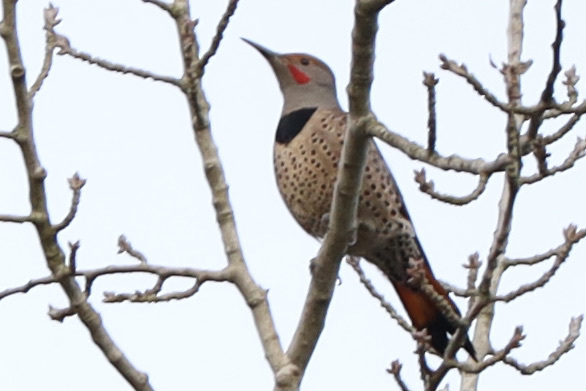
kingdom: Animalia
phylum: Chordata
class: Aves
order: Piciformes
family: Picidae
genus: Colaptes
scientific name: Colaptes auratus
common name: Northern flicker
